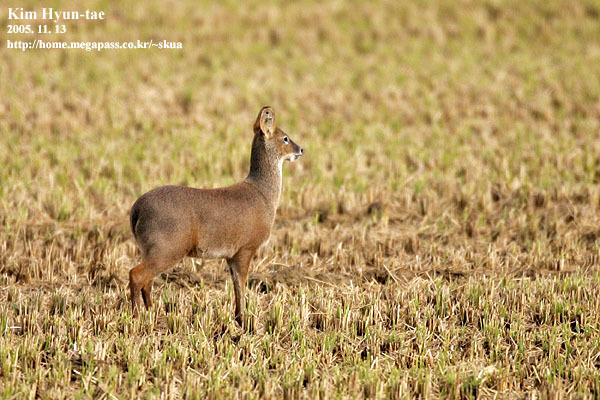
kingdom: Animalia
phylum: Chordata
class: Mammalia
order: Artiodactyla
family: Cervidae
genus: Hydropotes
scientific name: Hydropotes inermis
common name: Chinese water deer
